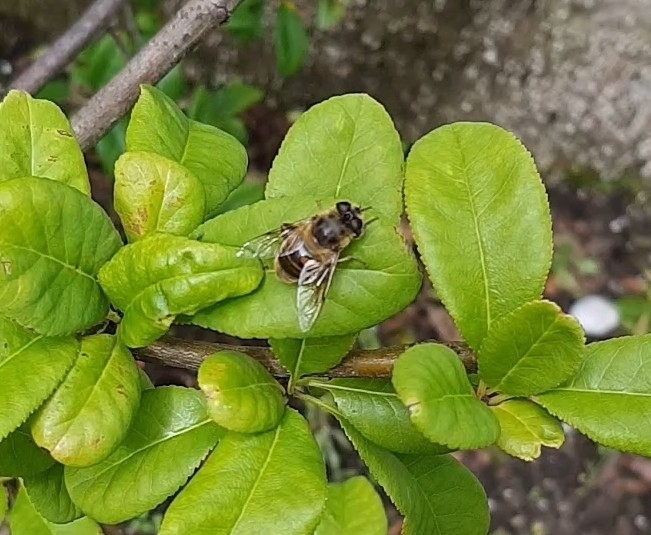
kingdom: Animalia
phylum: Arthropoda
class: Insecta
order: Diptera
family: Syrphidae
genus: Eristalis
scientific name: Eristalis tenax
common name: Drone fly
